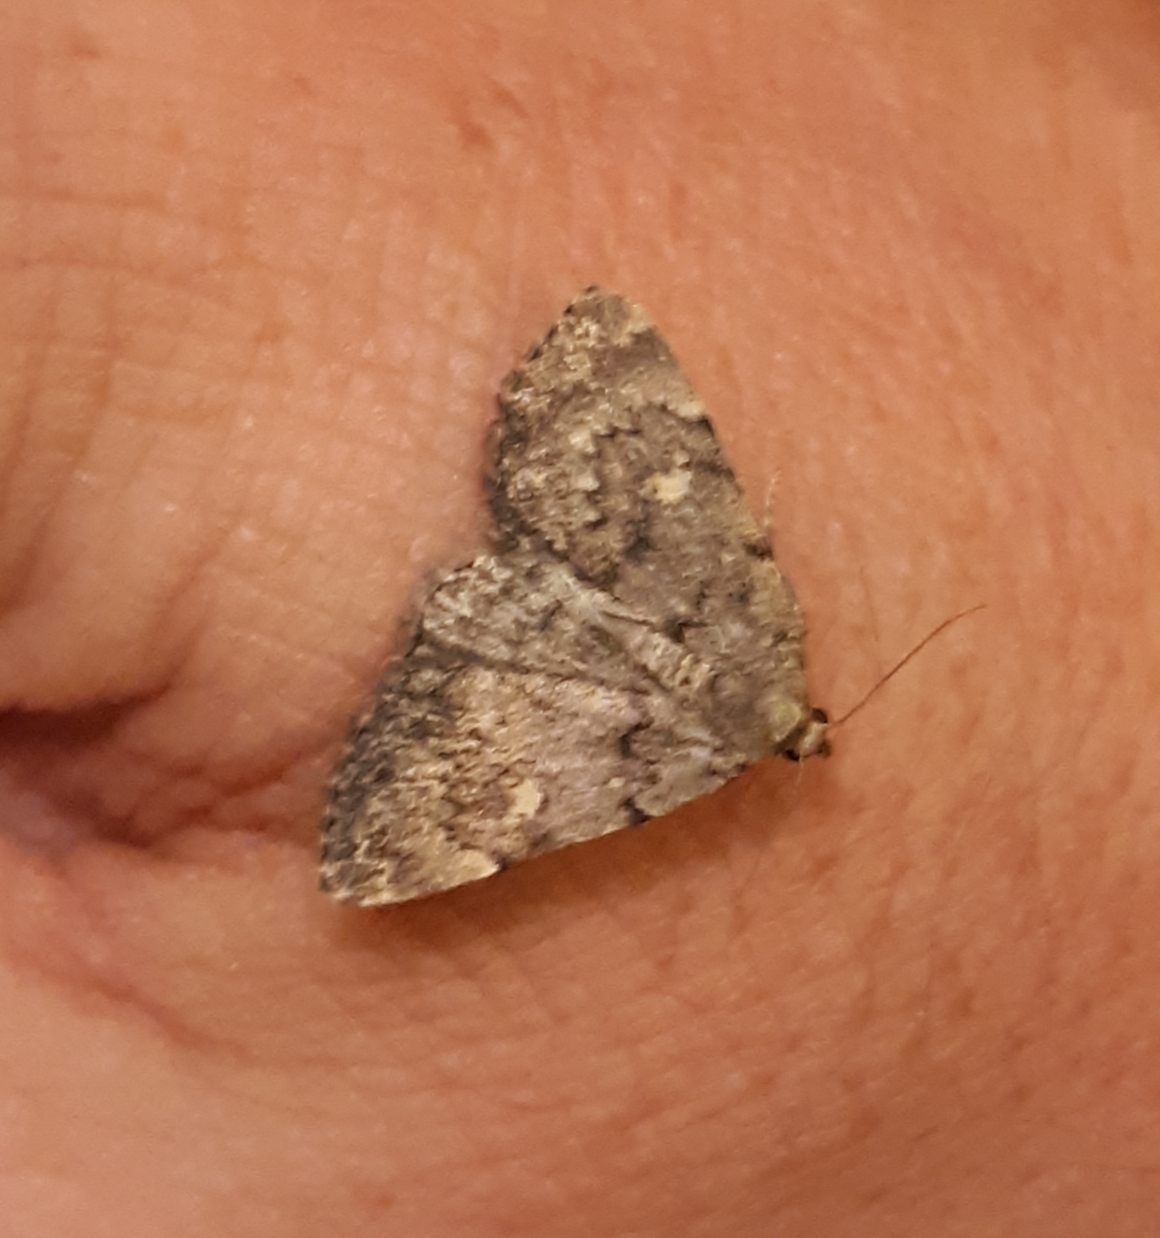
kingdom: Animalia
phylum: Arthropoda
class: Insecta
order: Lepidoptera
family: Erebidae
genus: Idia
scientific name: Idia aemula
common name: Common idia moth
